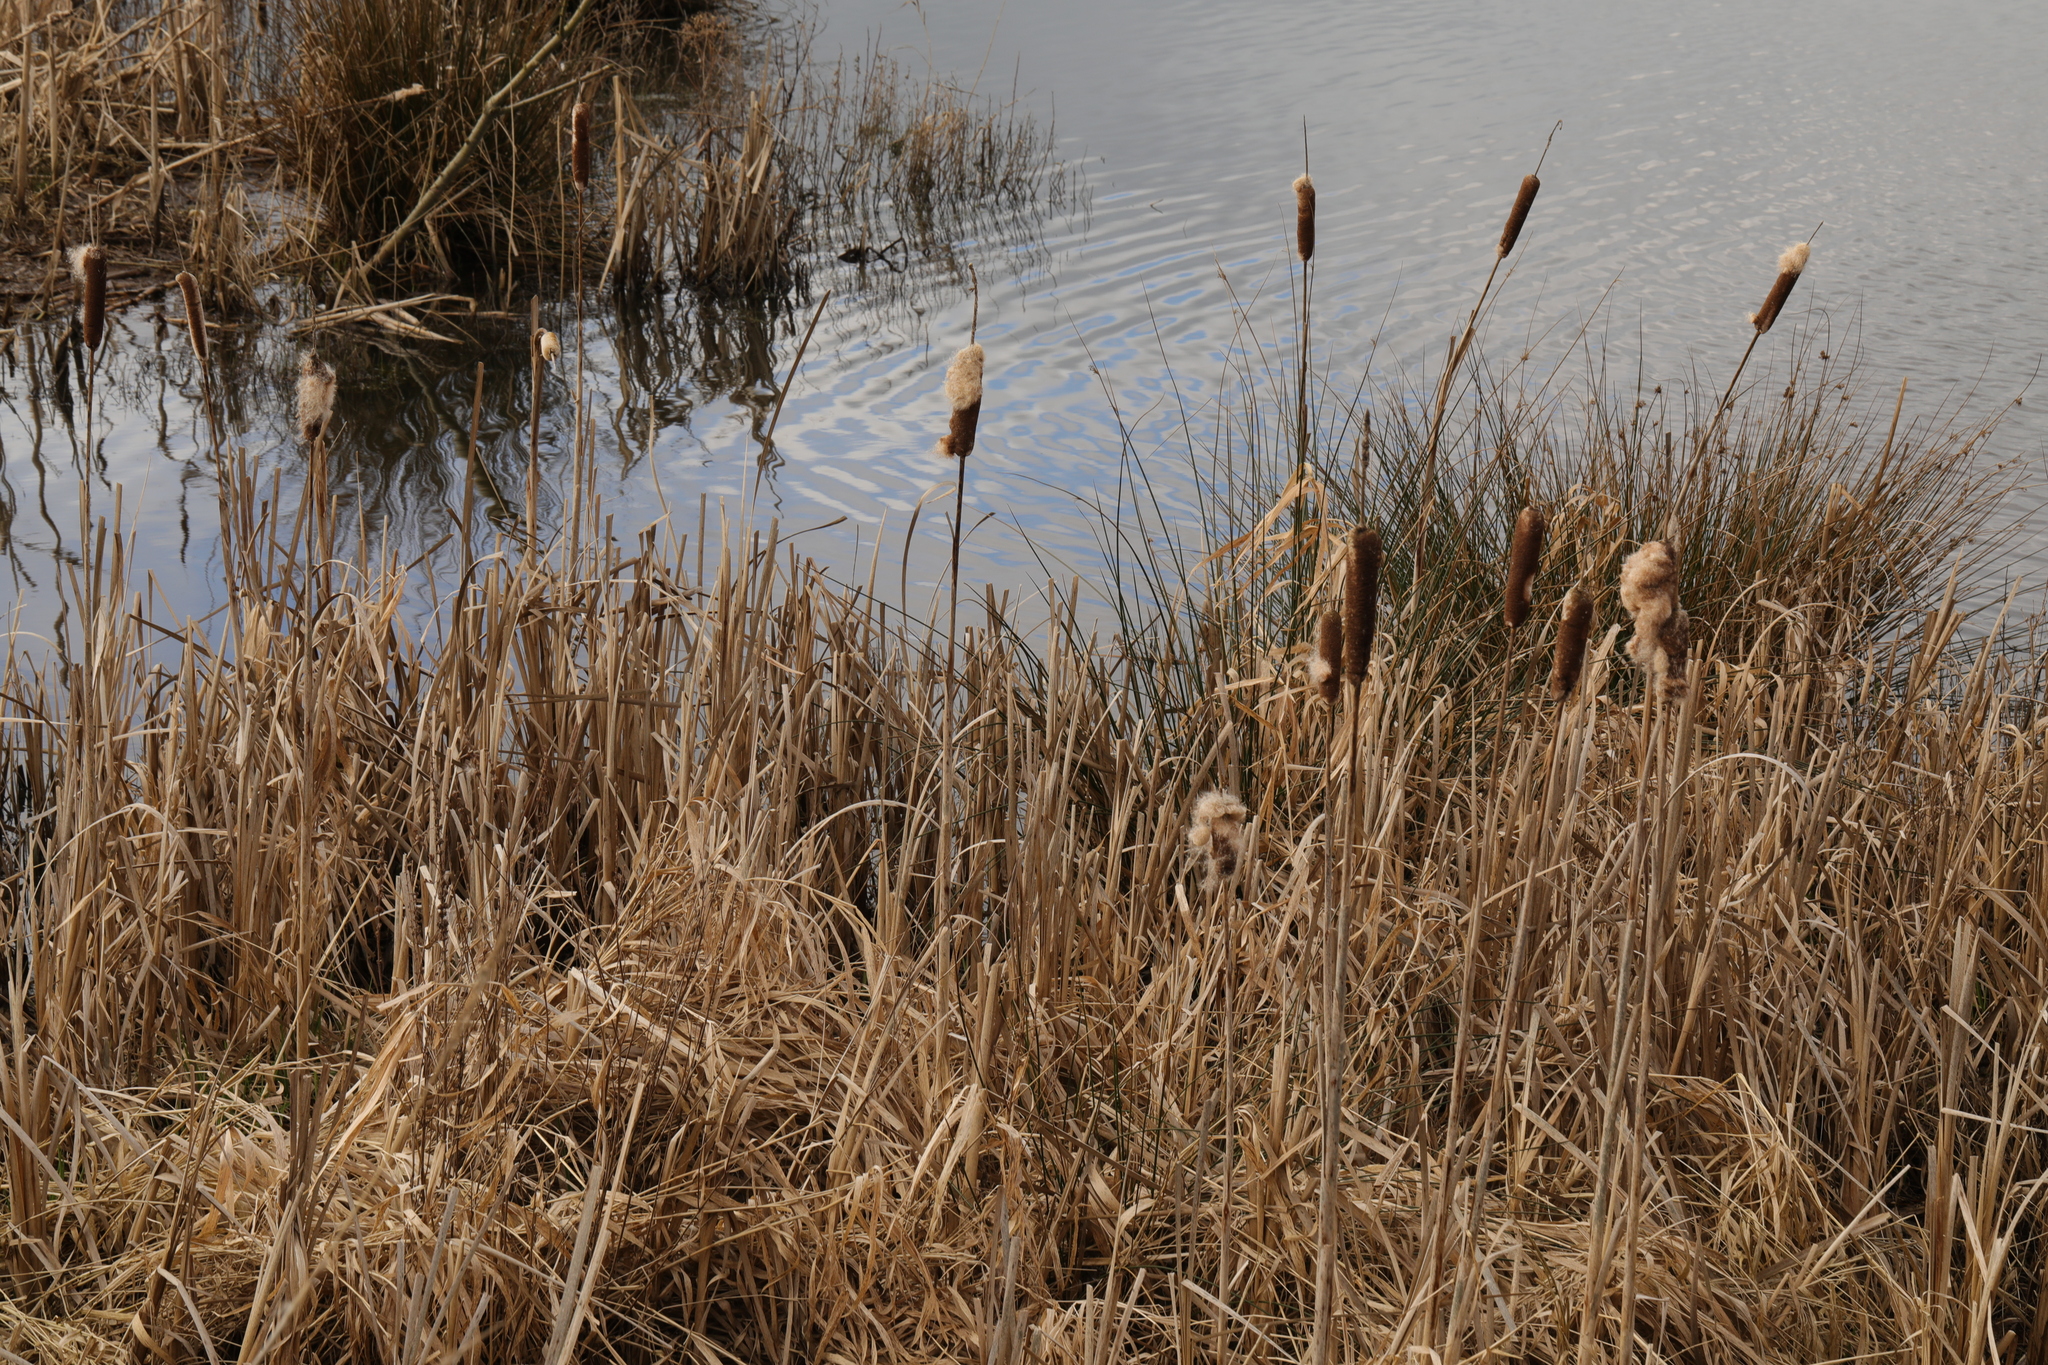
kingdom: Plantae
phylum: Tracheophyta
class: Liliopsida
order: Poales
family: Typhaceae
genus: Typha
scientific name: Typha latifolia
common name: Broadleaf cattail
